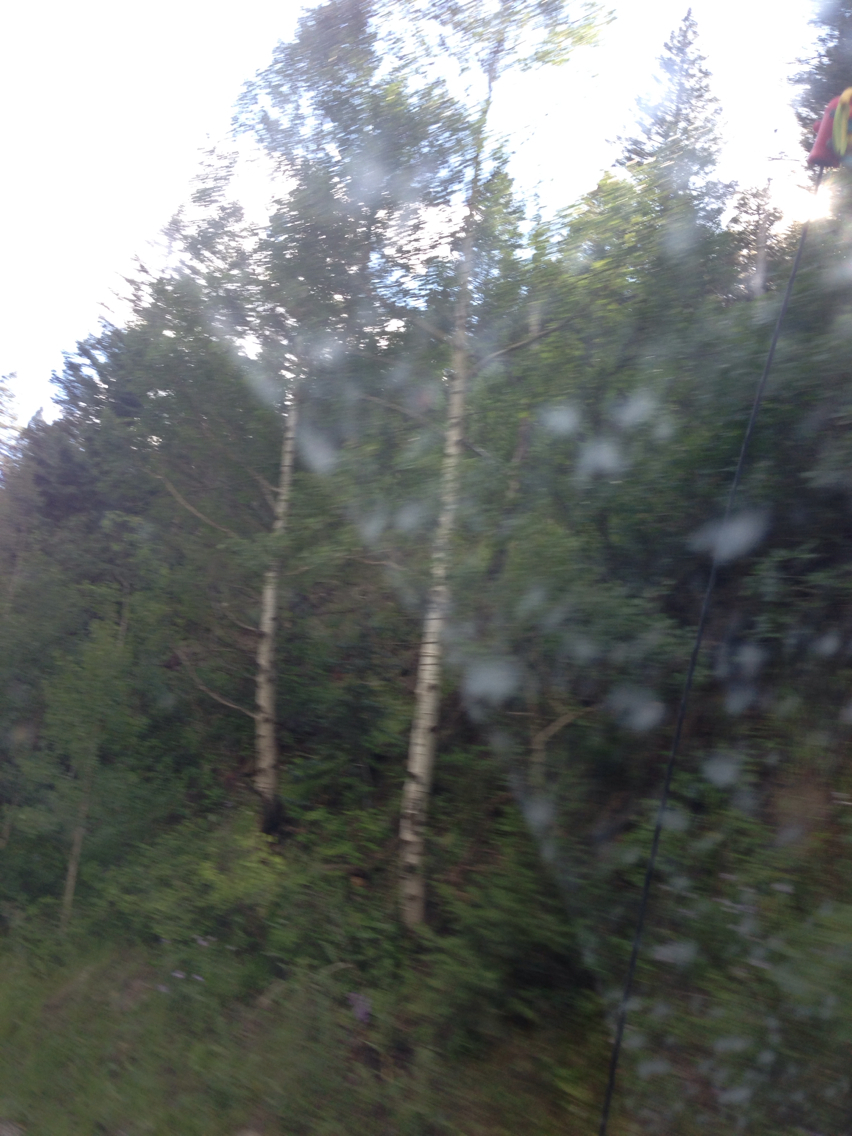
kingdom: Plantae
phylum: Tracheophyta
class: Magnoliopsida
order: Malpighiales
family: Salicaceae
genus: Populus
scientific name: Populus tremuloides
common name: Quaking aspen
